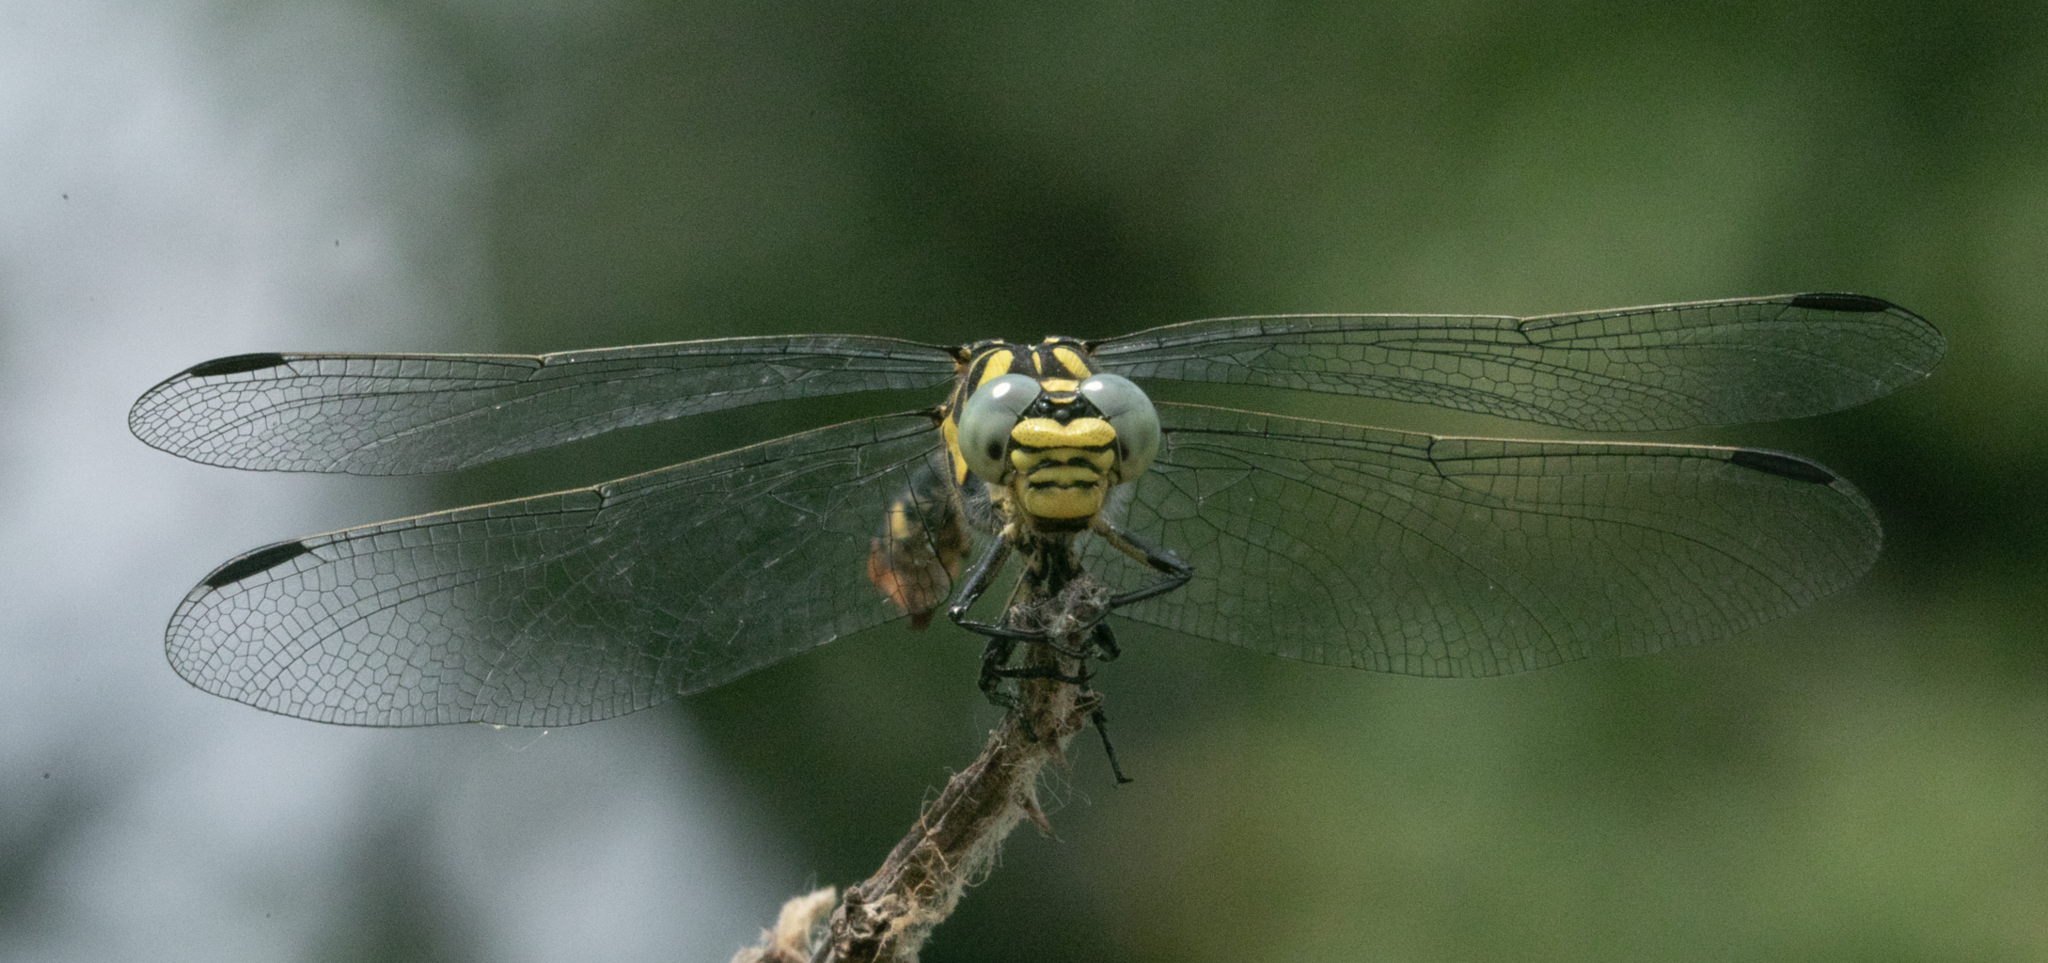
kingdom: Animalia
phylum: Arthropoda
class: Insecta
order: Odonata
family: Gomphidae
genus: Onychogomphus
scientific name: Onychogomphus forcipatus
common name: Small pincertail
